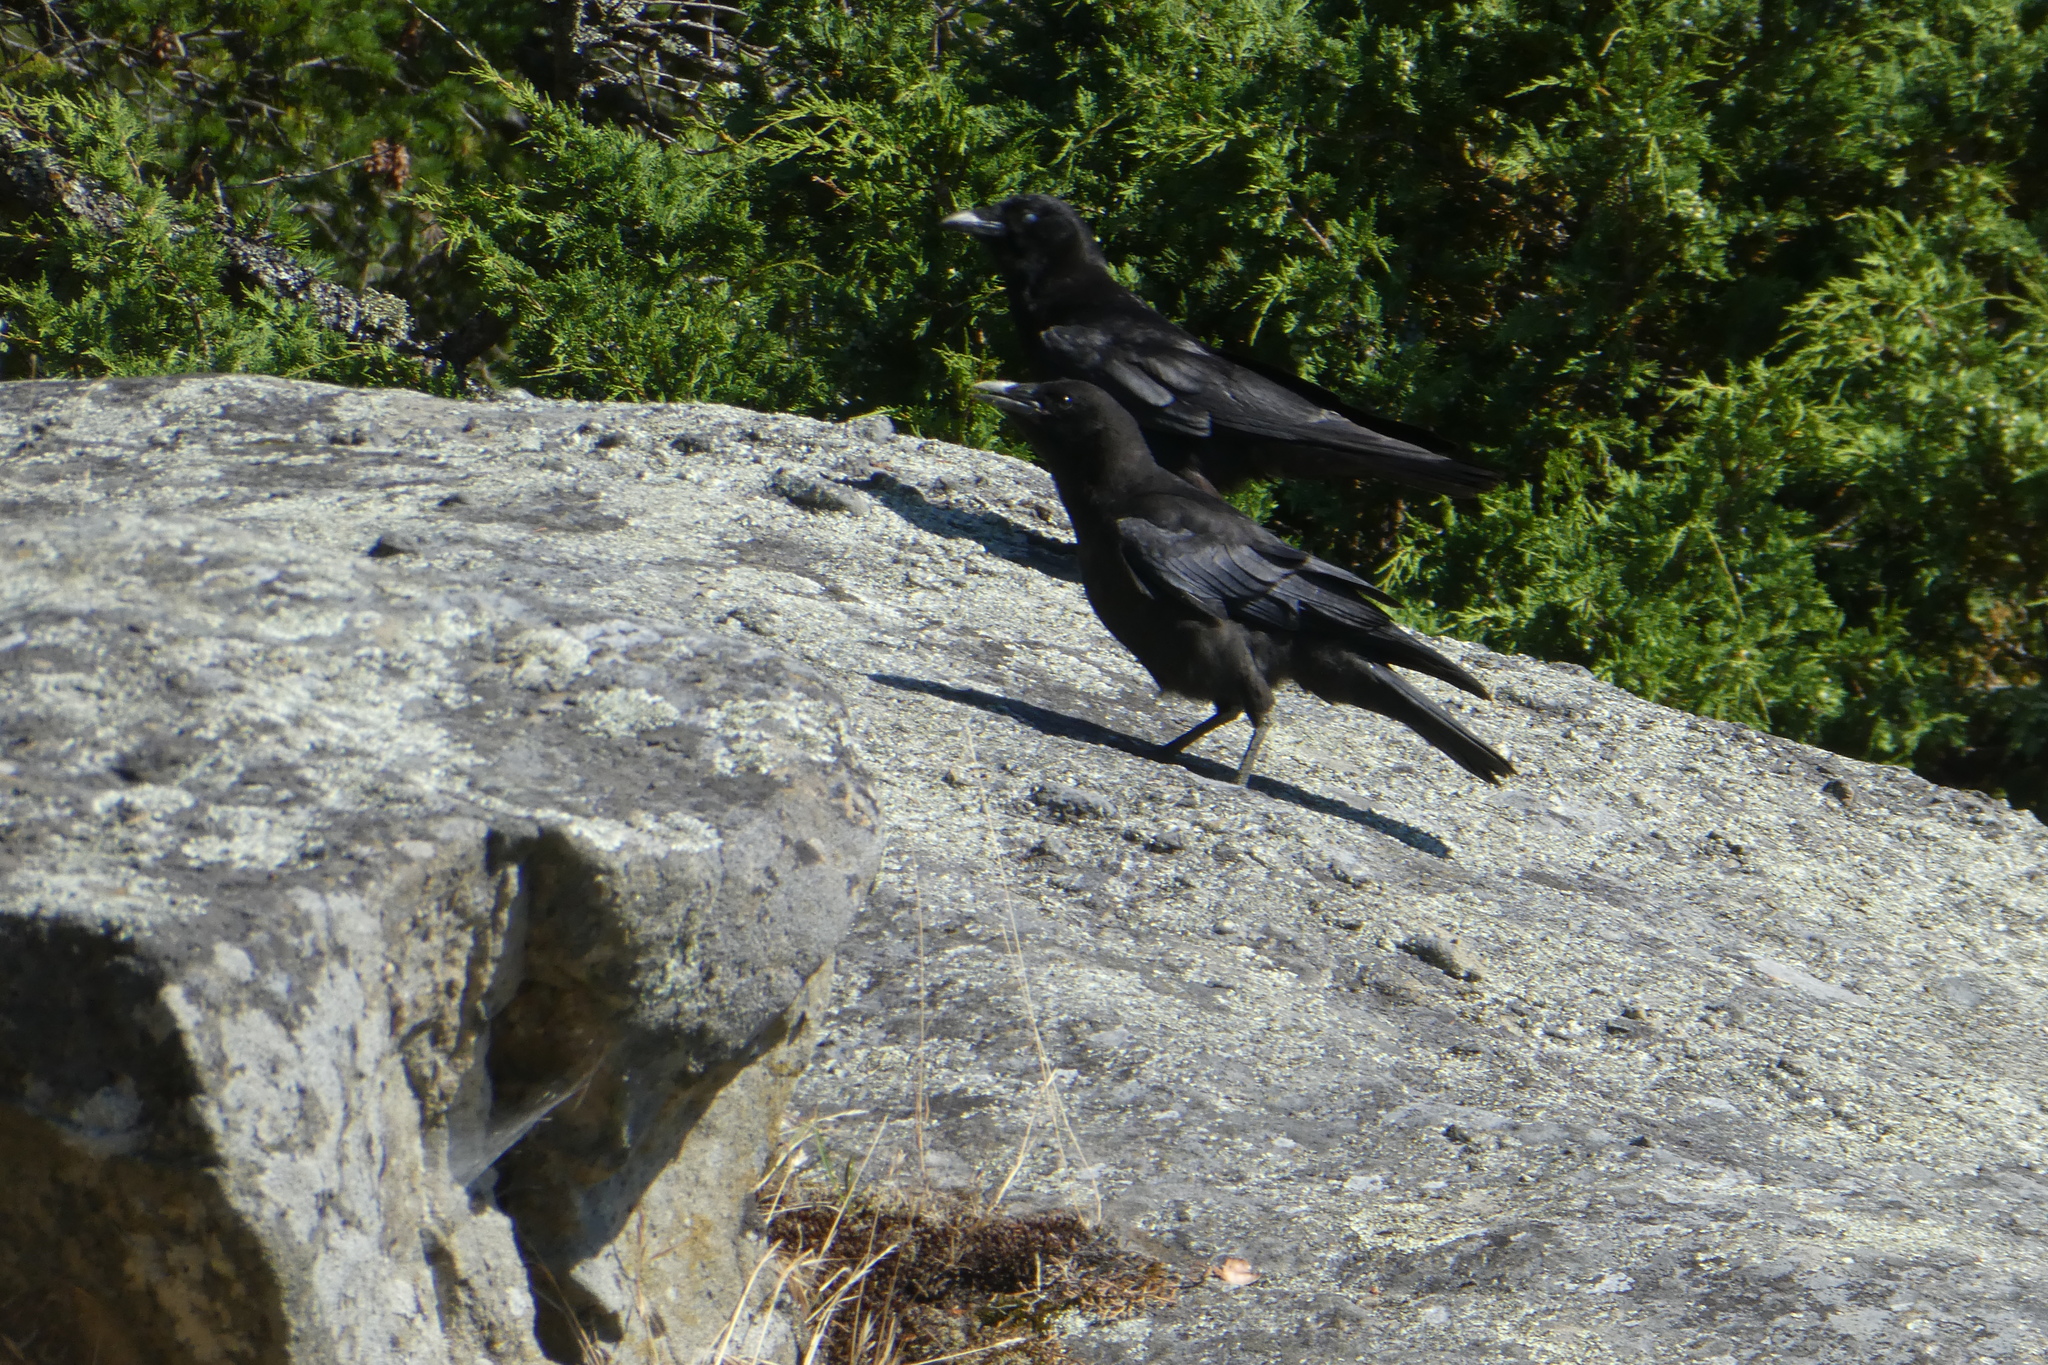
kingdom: Animalia
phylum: Chordata
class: Aves
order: Passeriformes
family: Corvidae
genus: Corvus
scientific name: Corvus brachyrhynchos
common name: American crow
